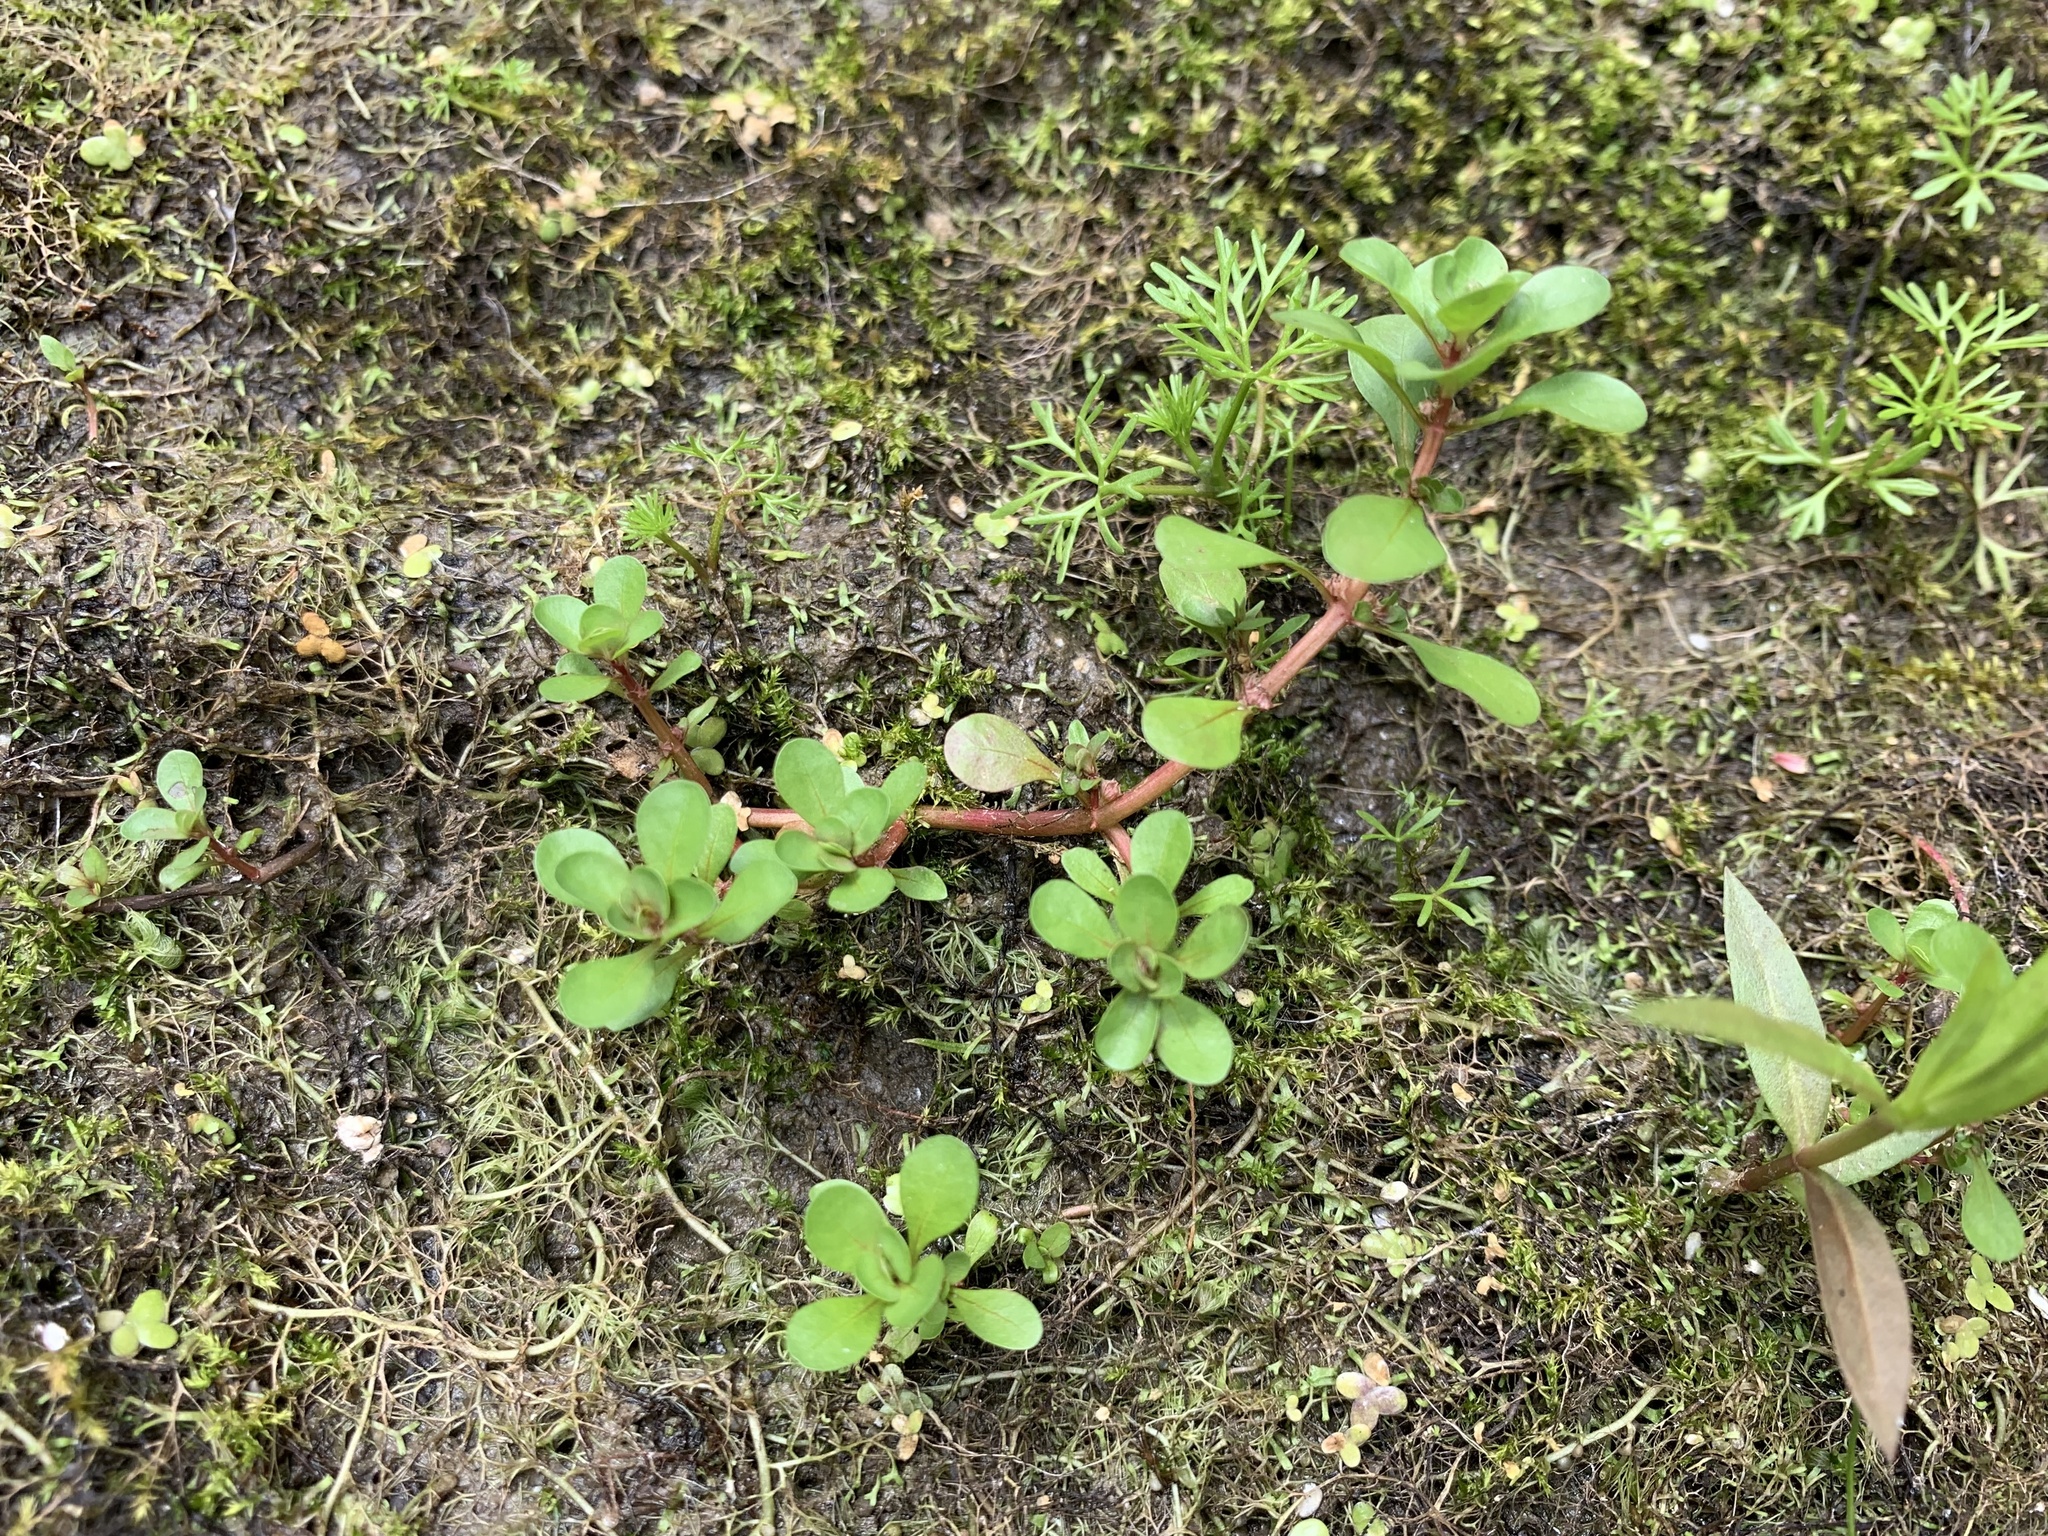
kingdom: Plantae
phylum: Tracheophyta
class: Magnoliopsida
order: Myrtales
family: Lythraceae
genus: Lythrum
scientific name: Lythrum portula
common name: Water purslane
